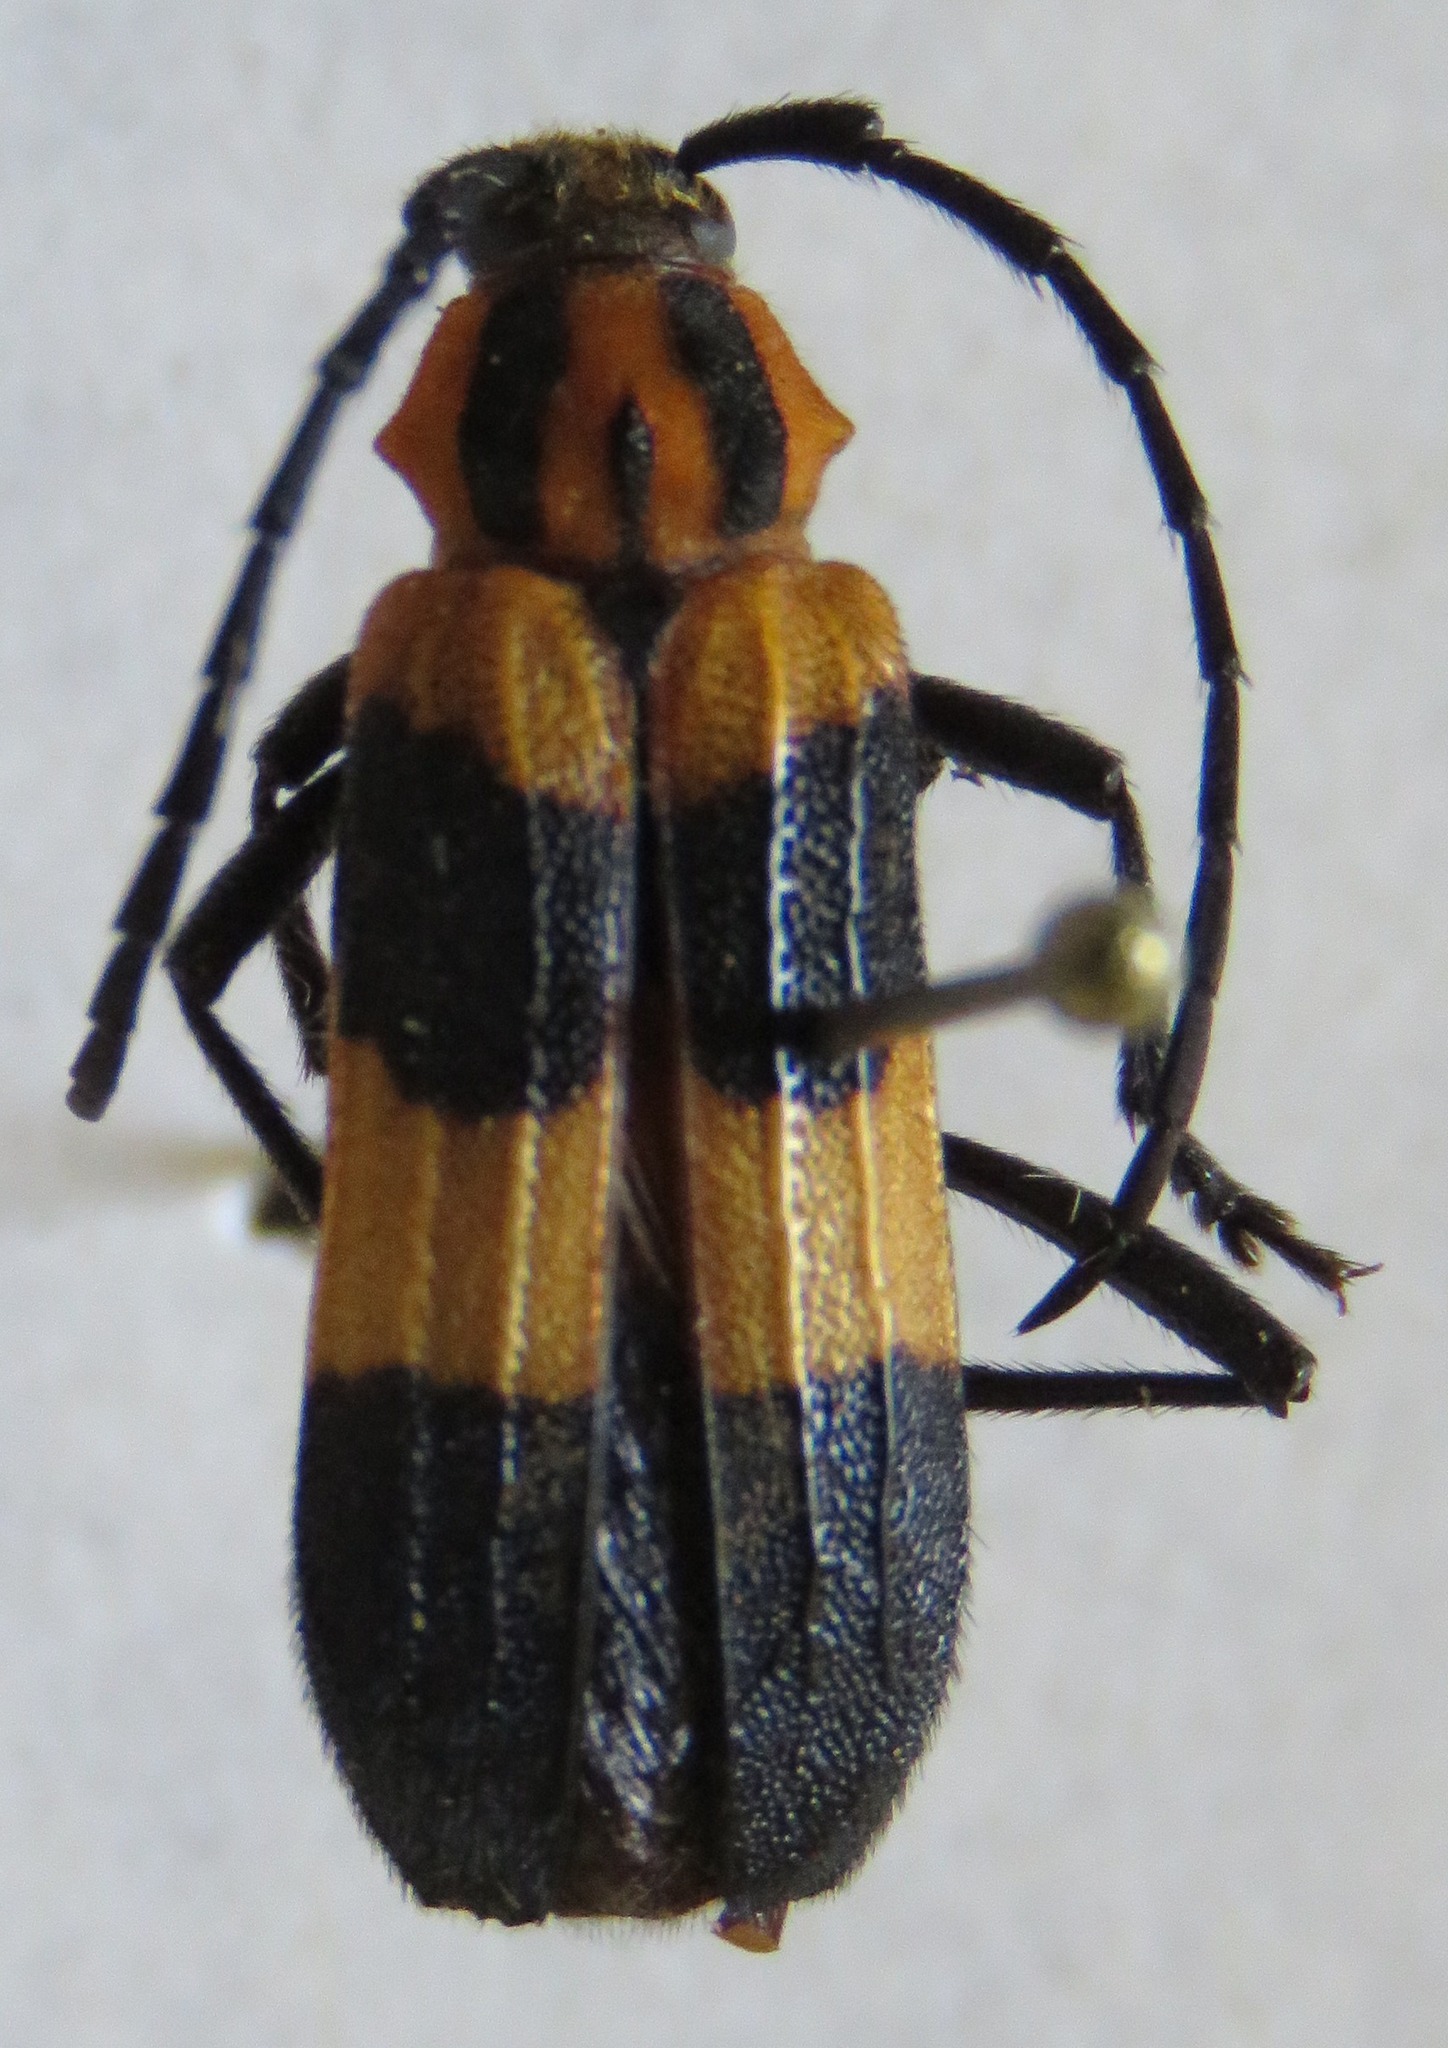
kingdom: Animalia
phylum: Arthropoda
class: Insecta
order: Coleoptera
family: Cerambycidae
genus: Parevander
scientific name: Parevander xanthomelas
